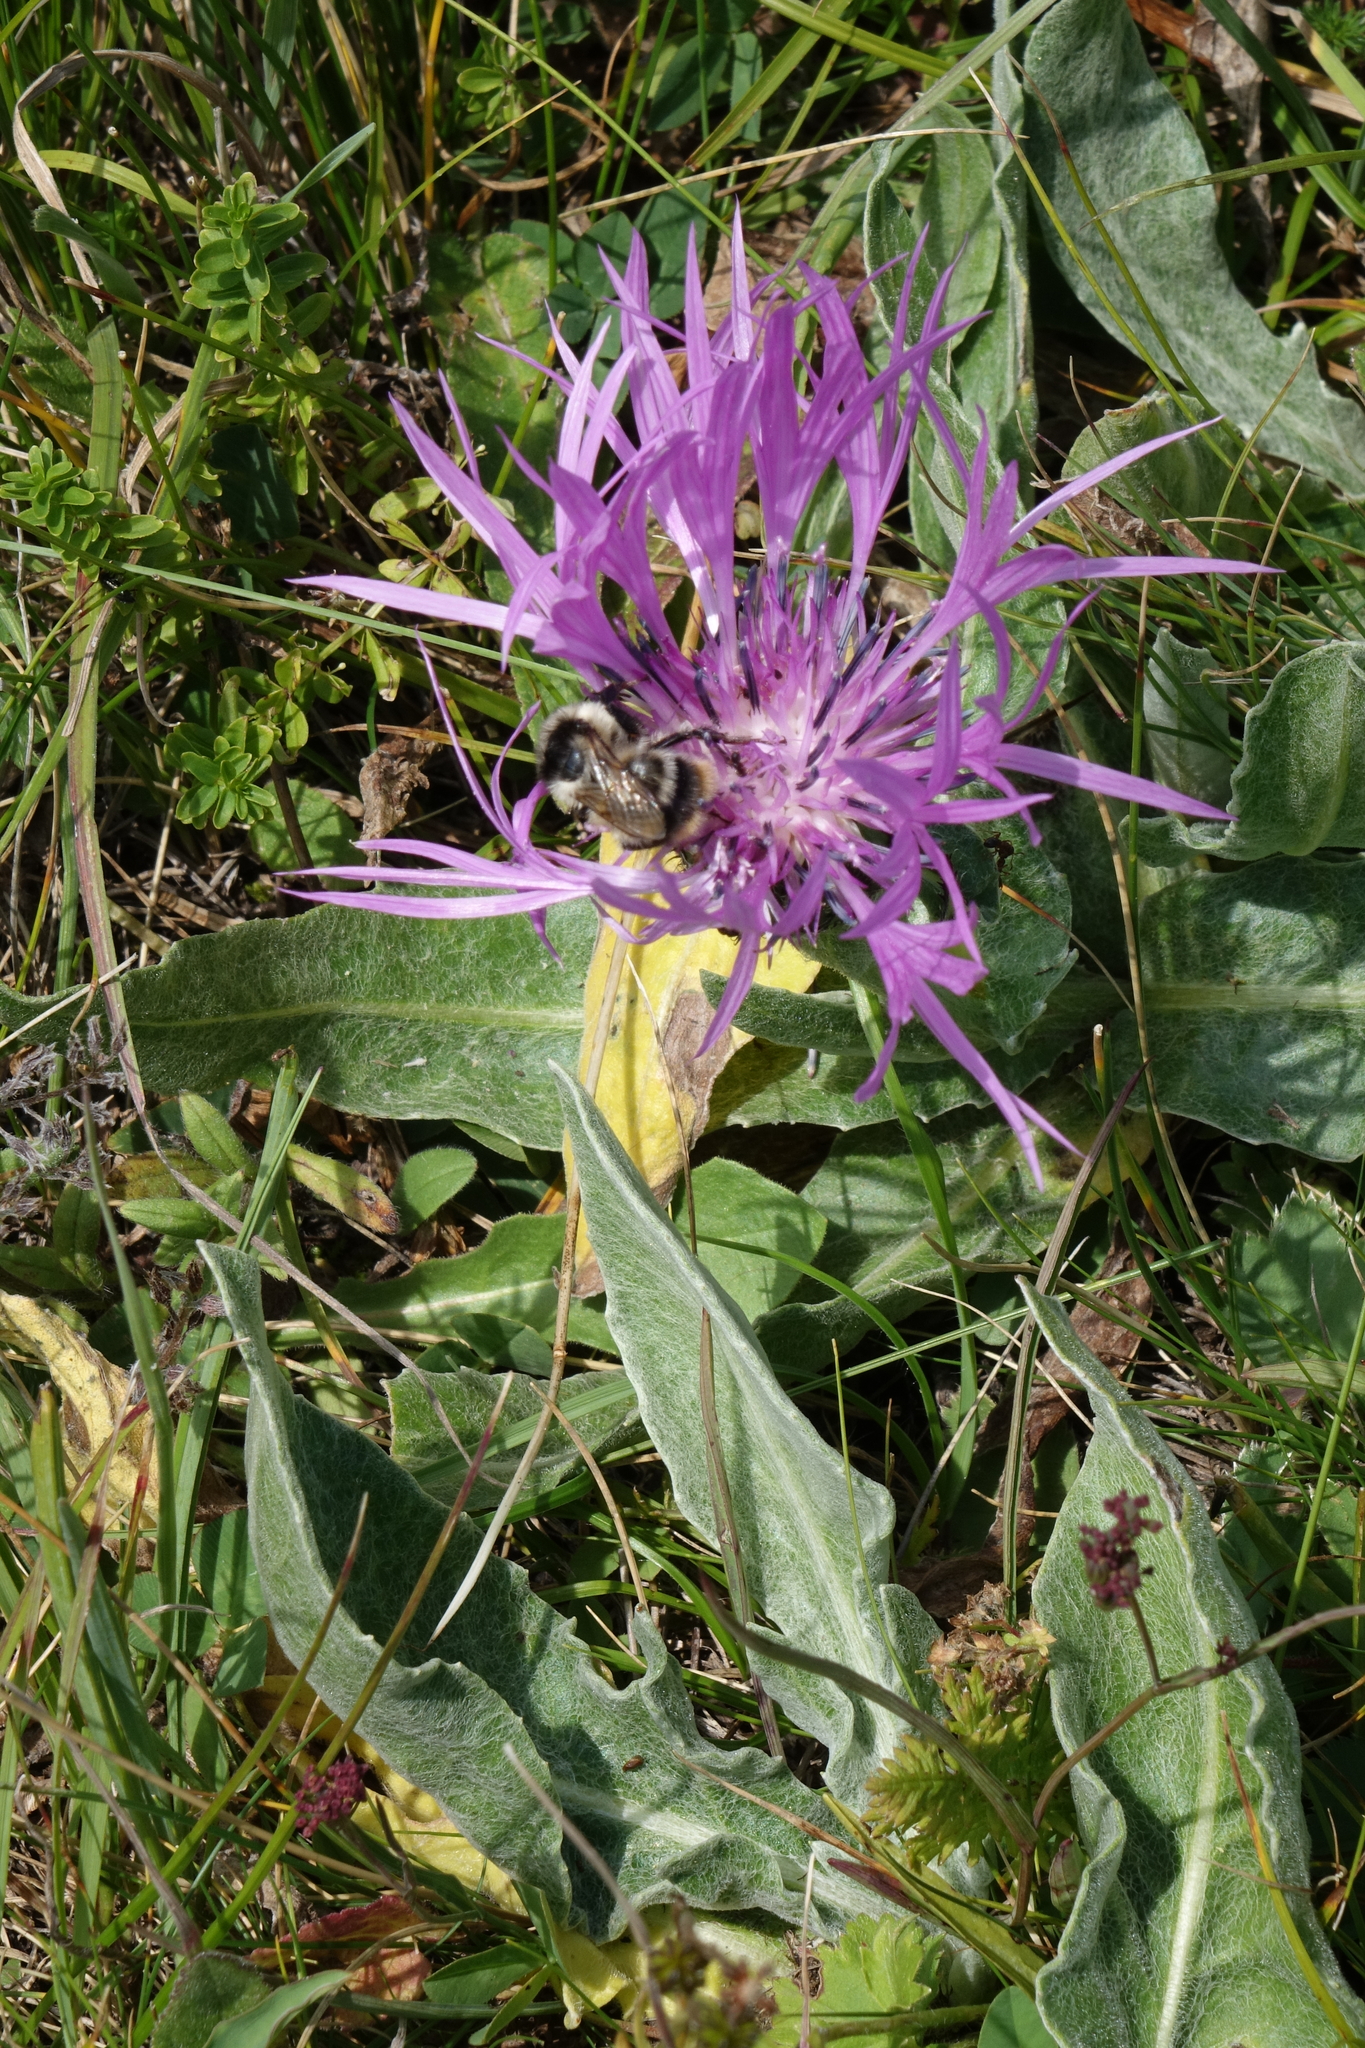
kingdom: Plantae
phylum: Tracheophyta
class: Magnoliopsida
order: Asterales
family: Asteraceae
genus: Centaurea
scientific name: Centaurea cheiranthifolia
